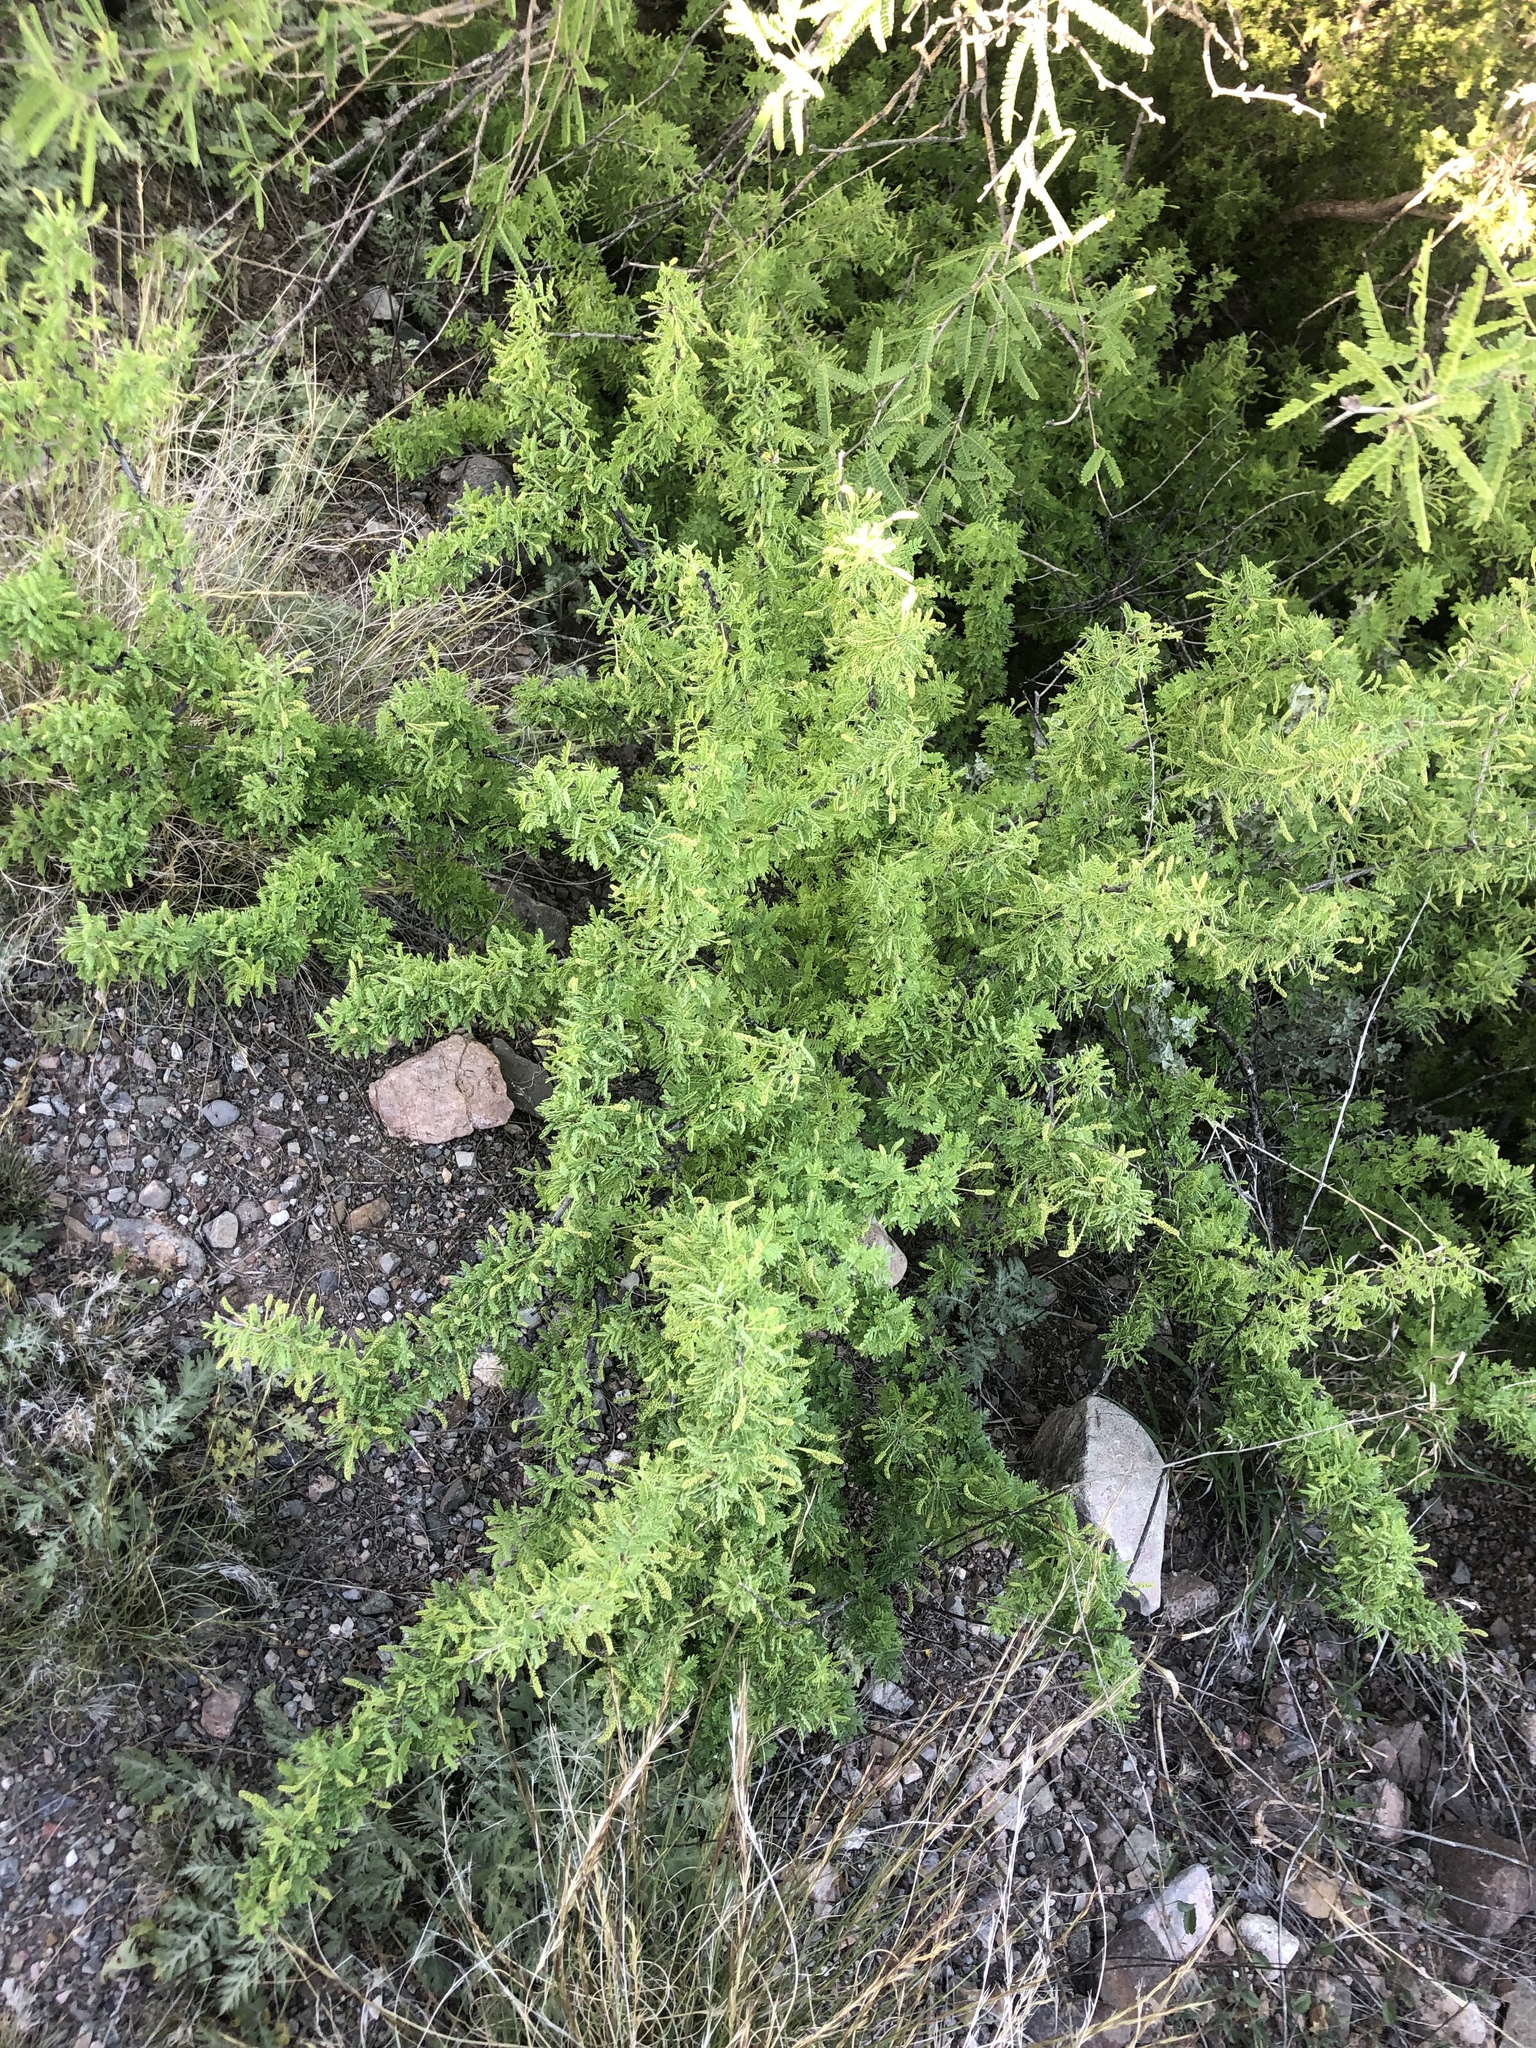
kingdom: Plantae
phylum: Tracheophyta
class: Magnoliopsida
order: Fabales
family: Fabaceae
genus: Senegalia
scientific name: Senegalia greggii
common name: Texas-mimosa
